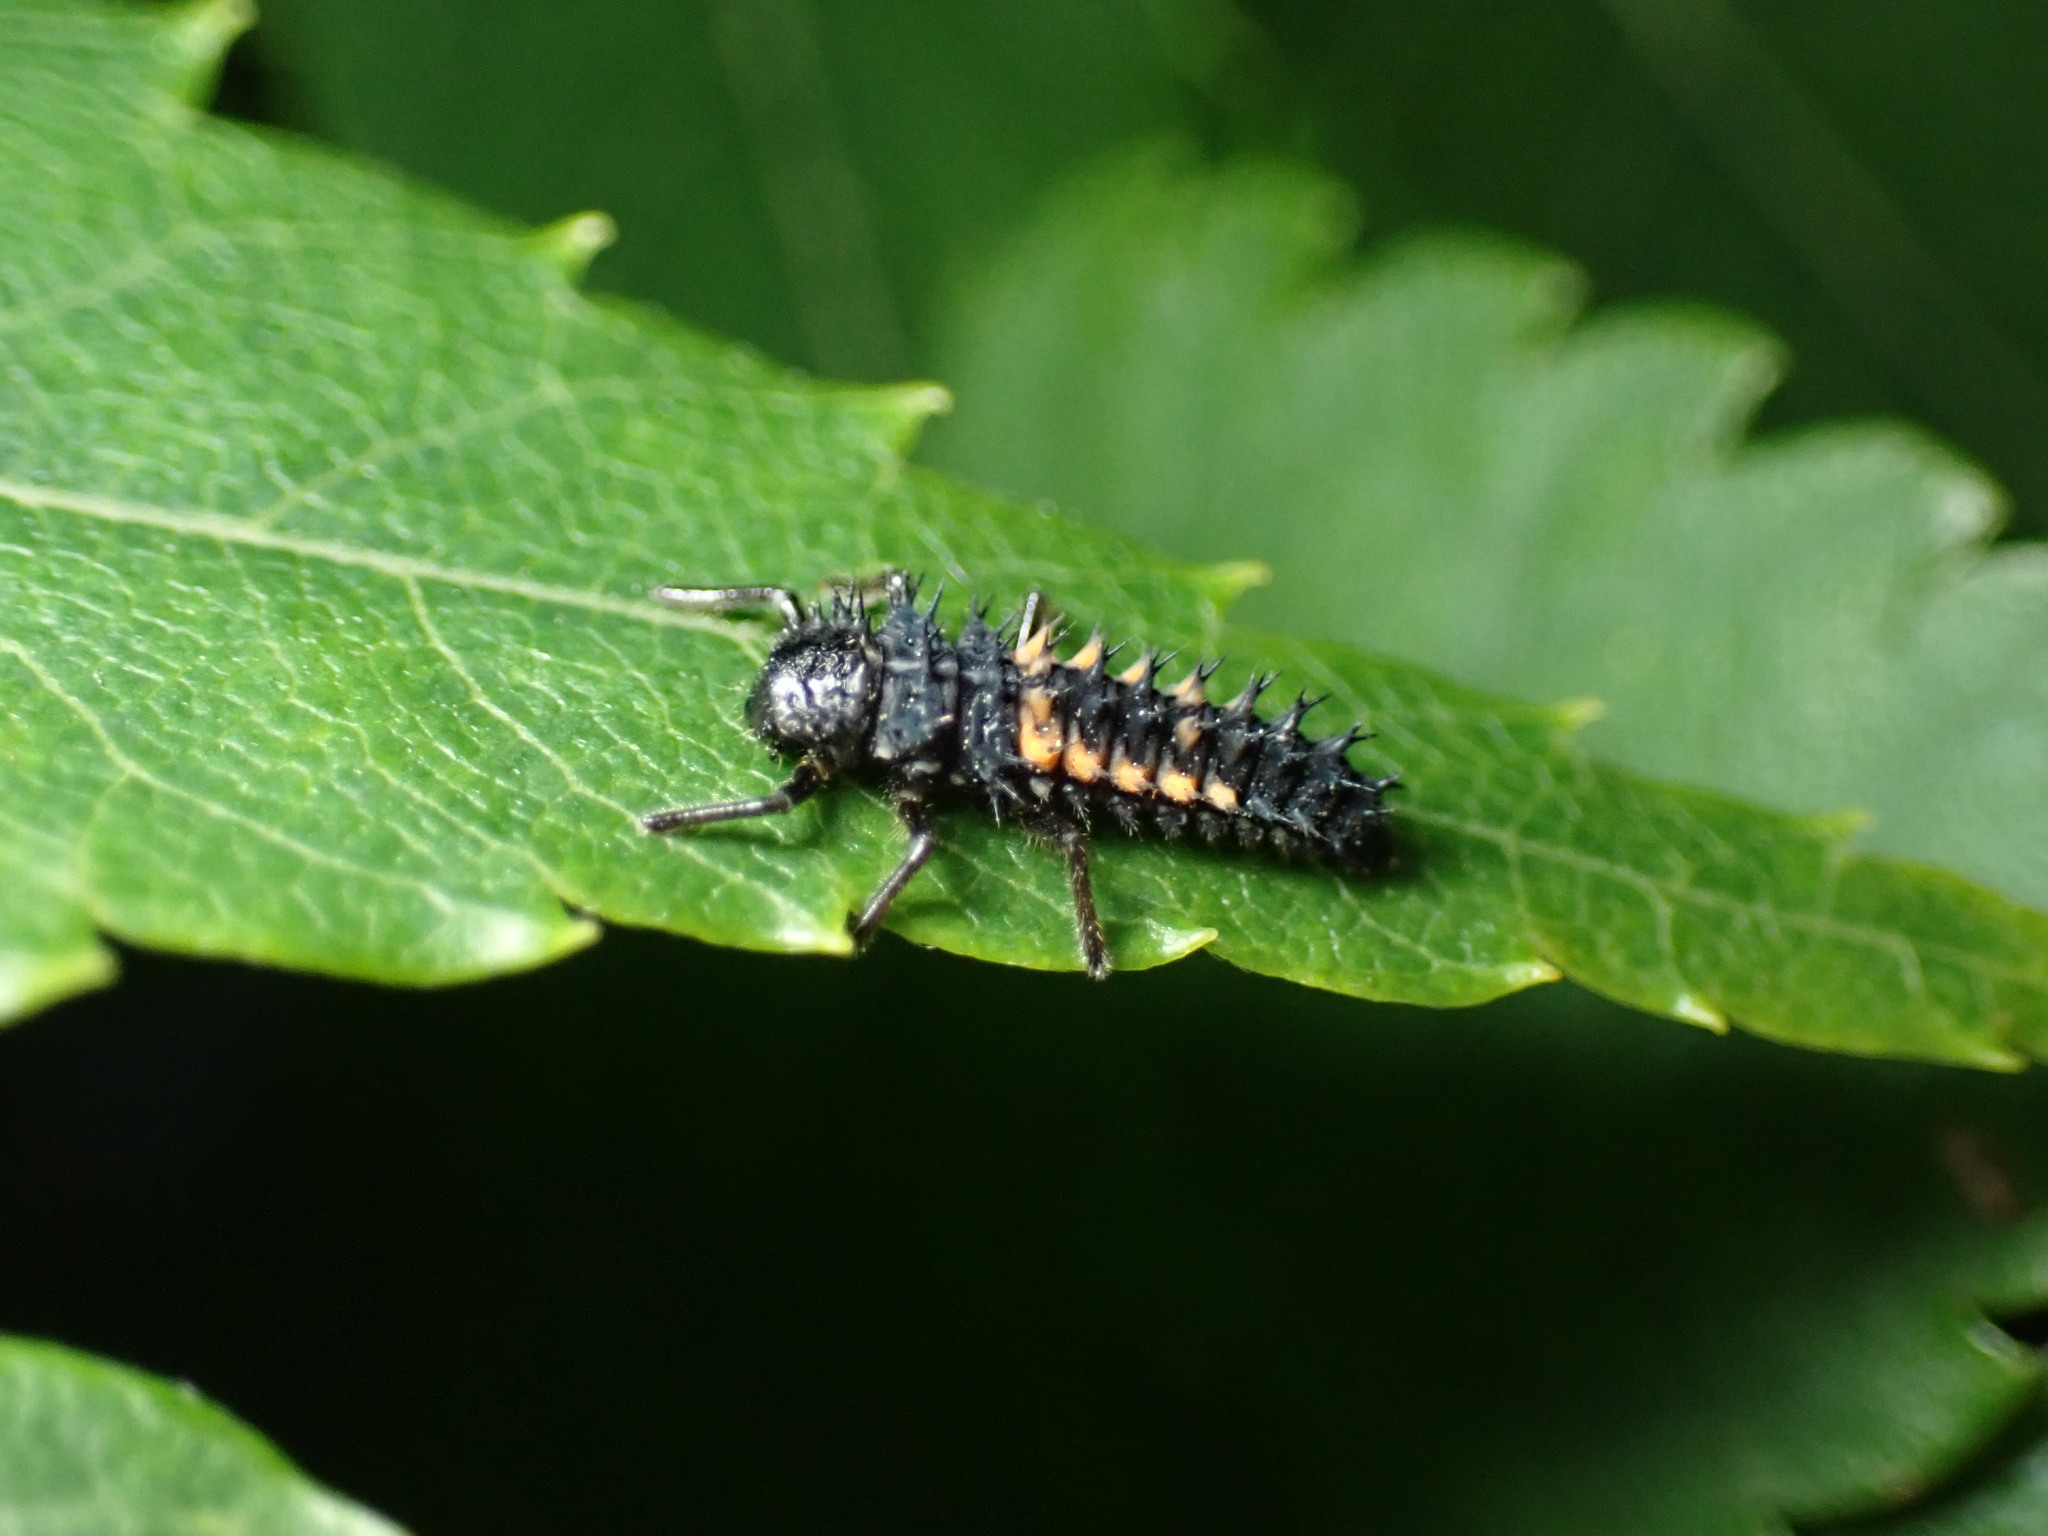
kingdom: Animalia
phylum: Arthropoda
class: Insecta
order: Coleoptera
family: Coccinellidae
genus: Harmonia
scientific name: Harmonia axyridis
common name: Harlequin ladybird
